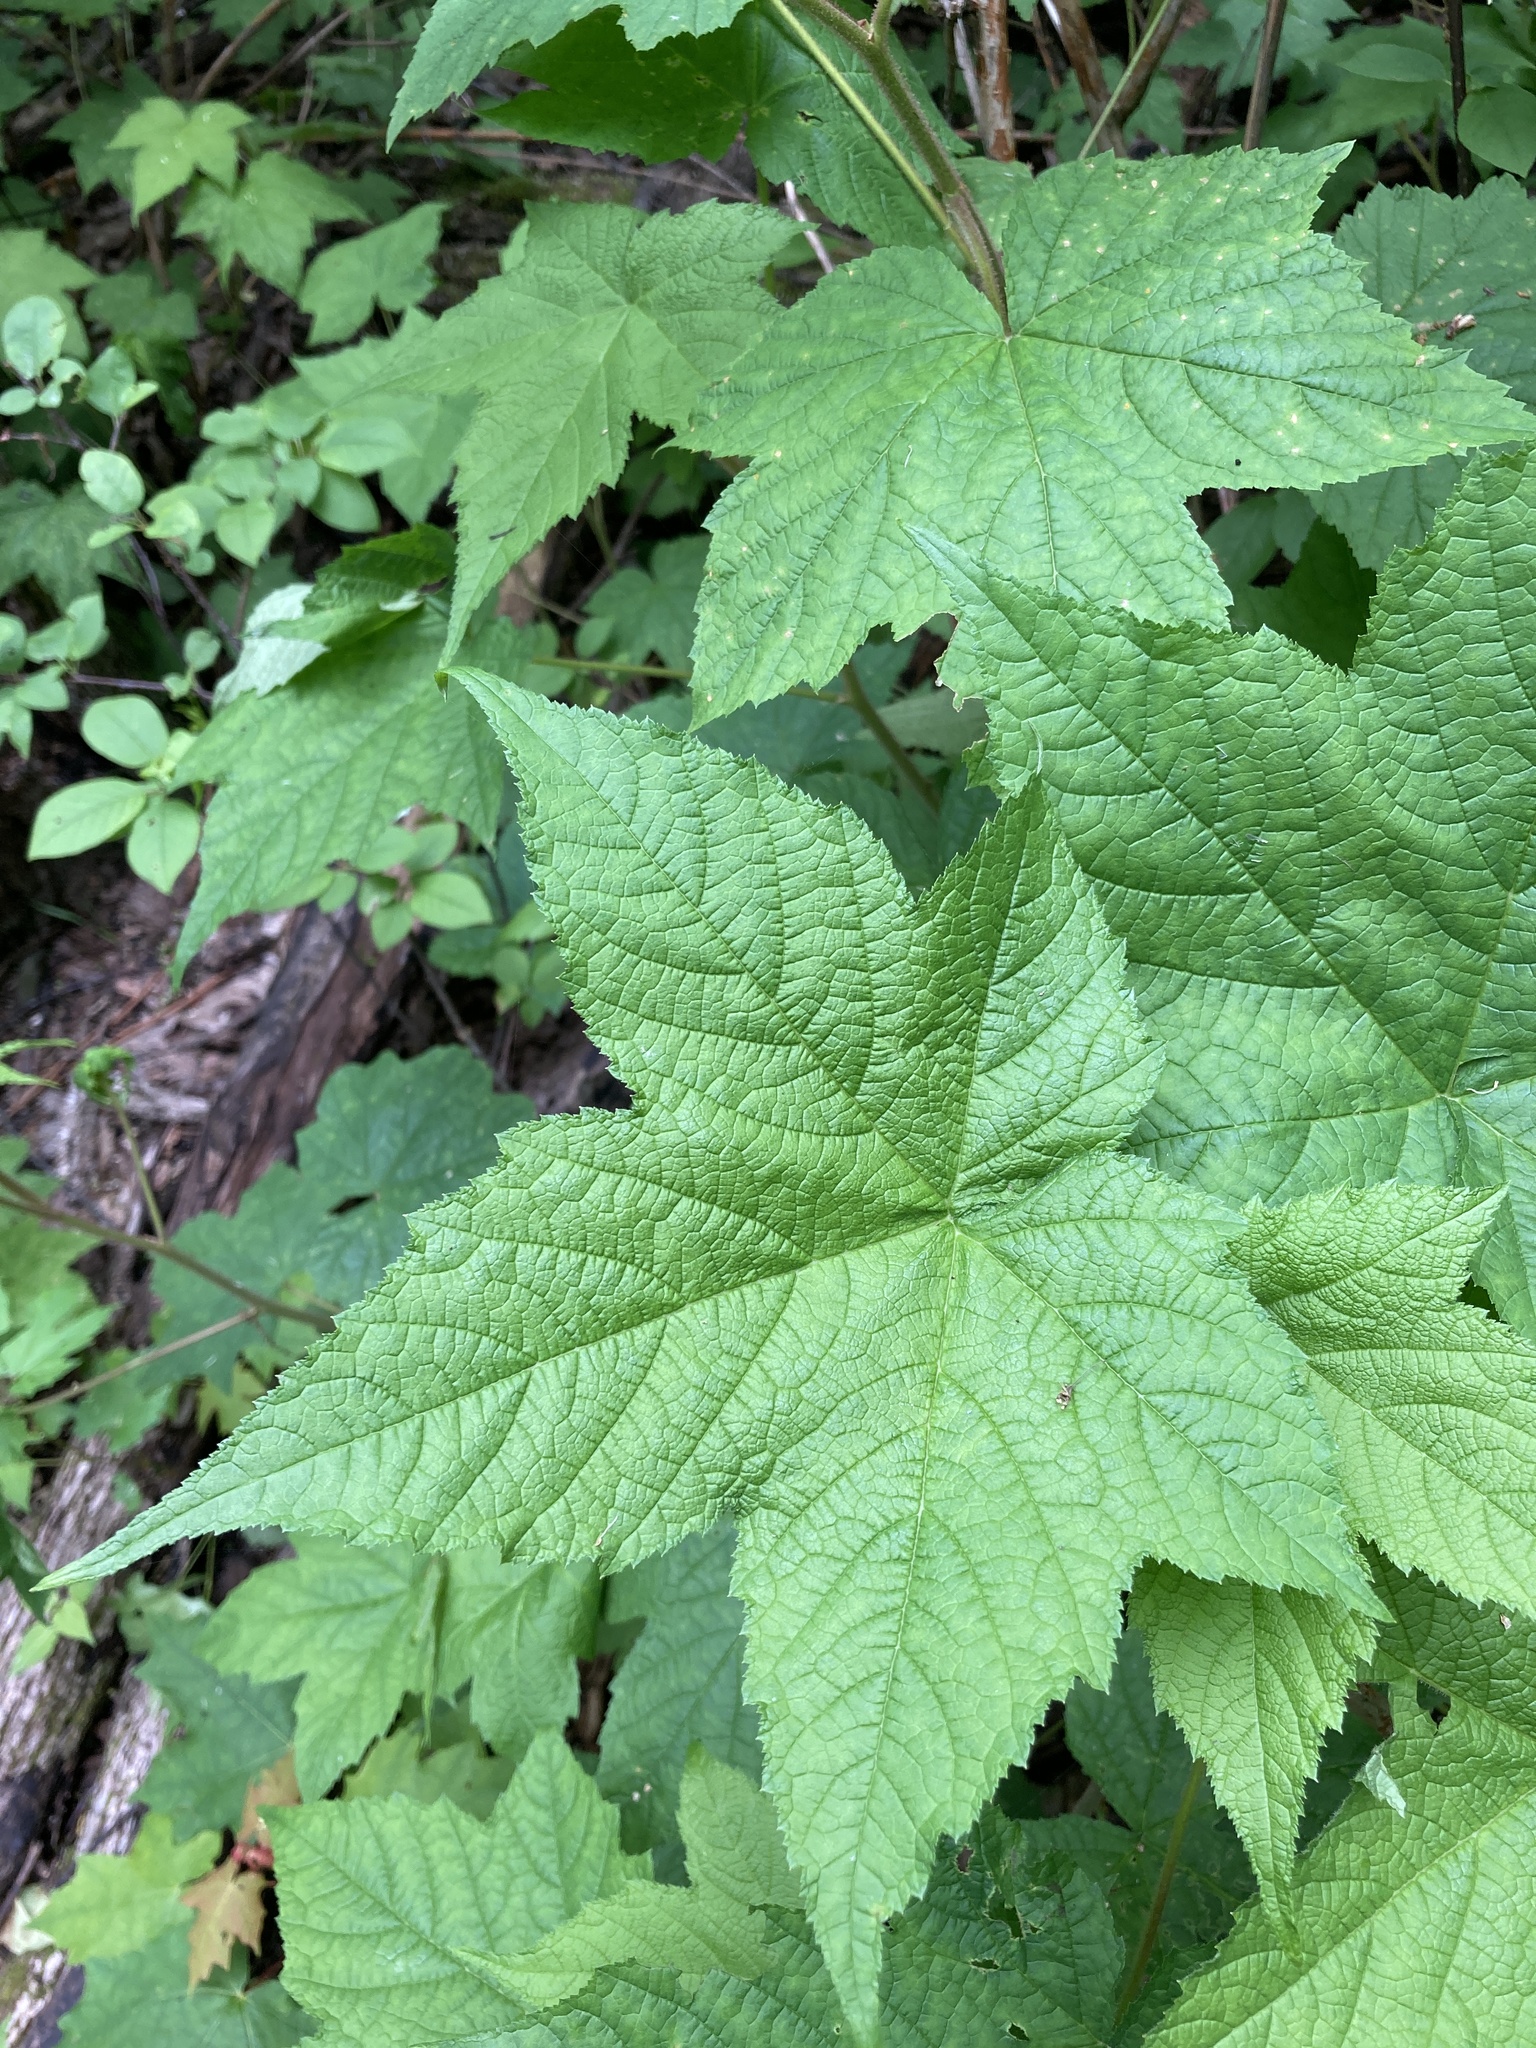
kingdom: Plantae
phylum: Tracheophyta
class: Magnoliopsida
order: Rosales
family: Rosaceae
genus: Rubus
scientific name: Rubus odoratus
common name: Purple-flowered raspberry
